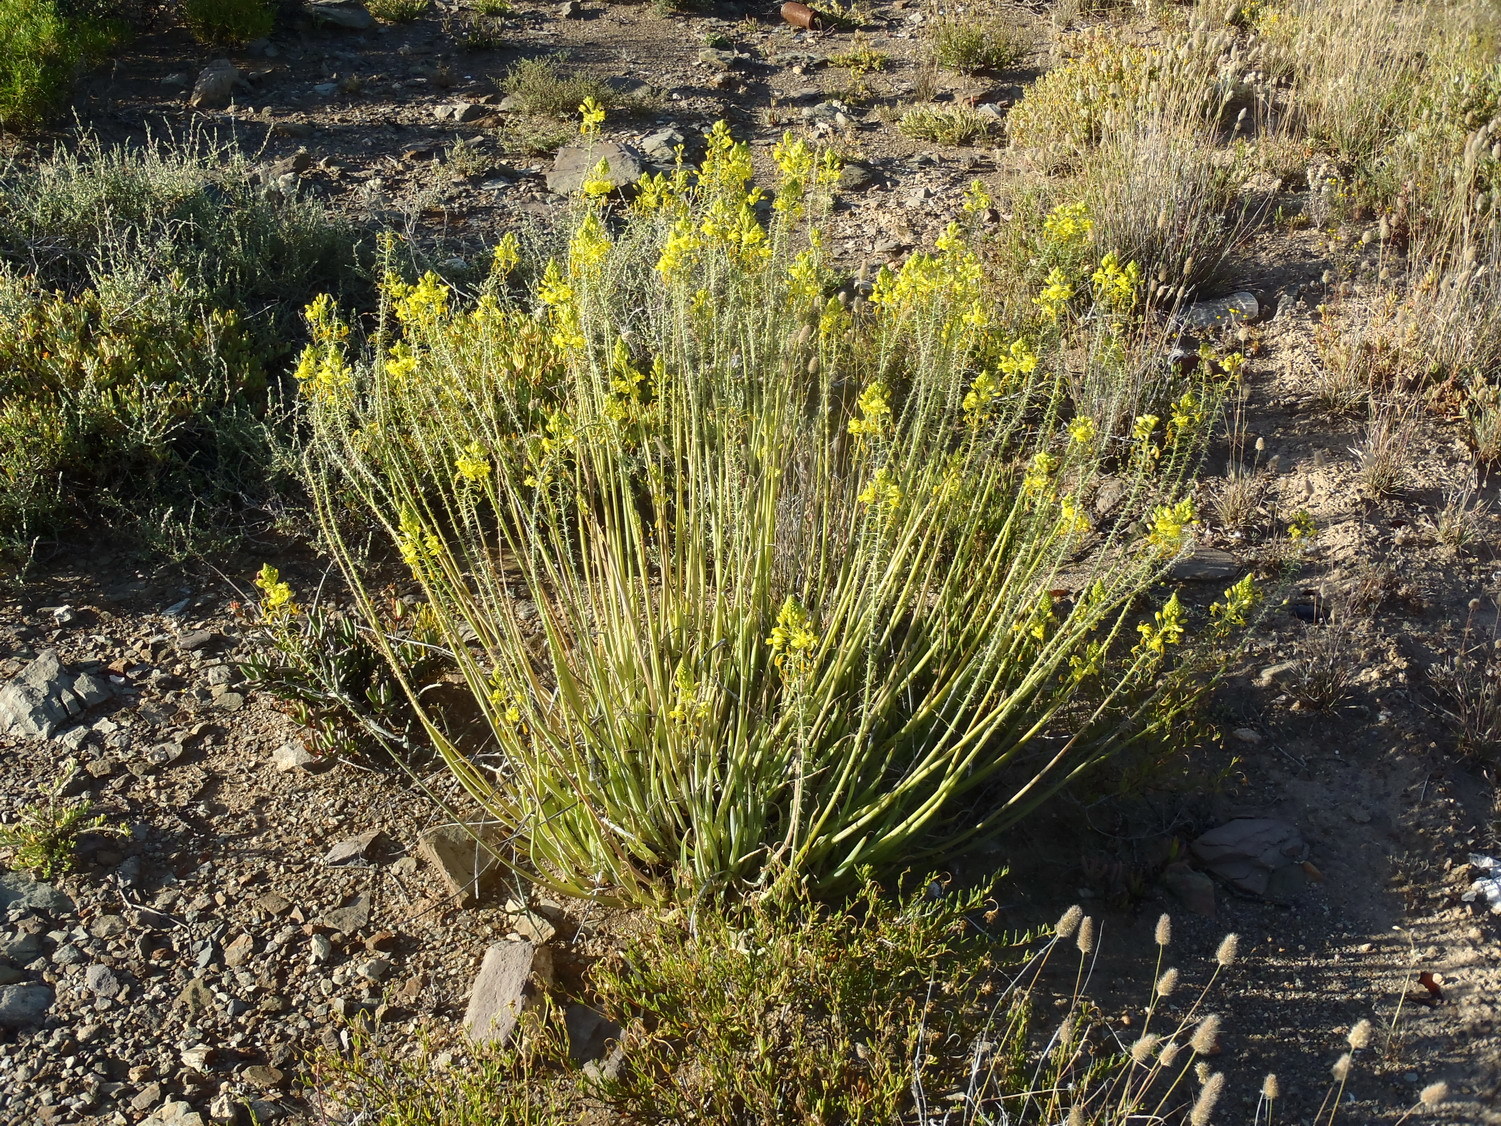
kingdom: Plantae
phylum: Tracheophyta
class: Liliopsida
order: Asparagales
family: Asphodelaceae
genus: Bulbine
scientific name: Bulbine abyssinica
